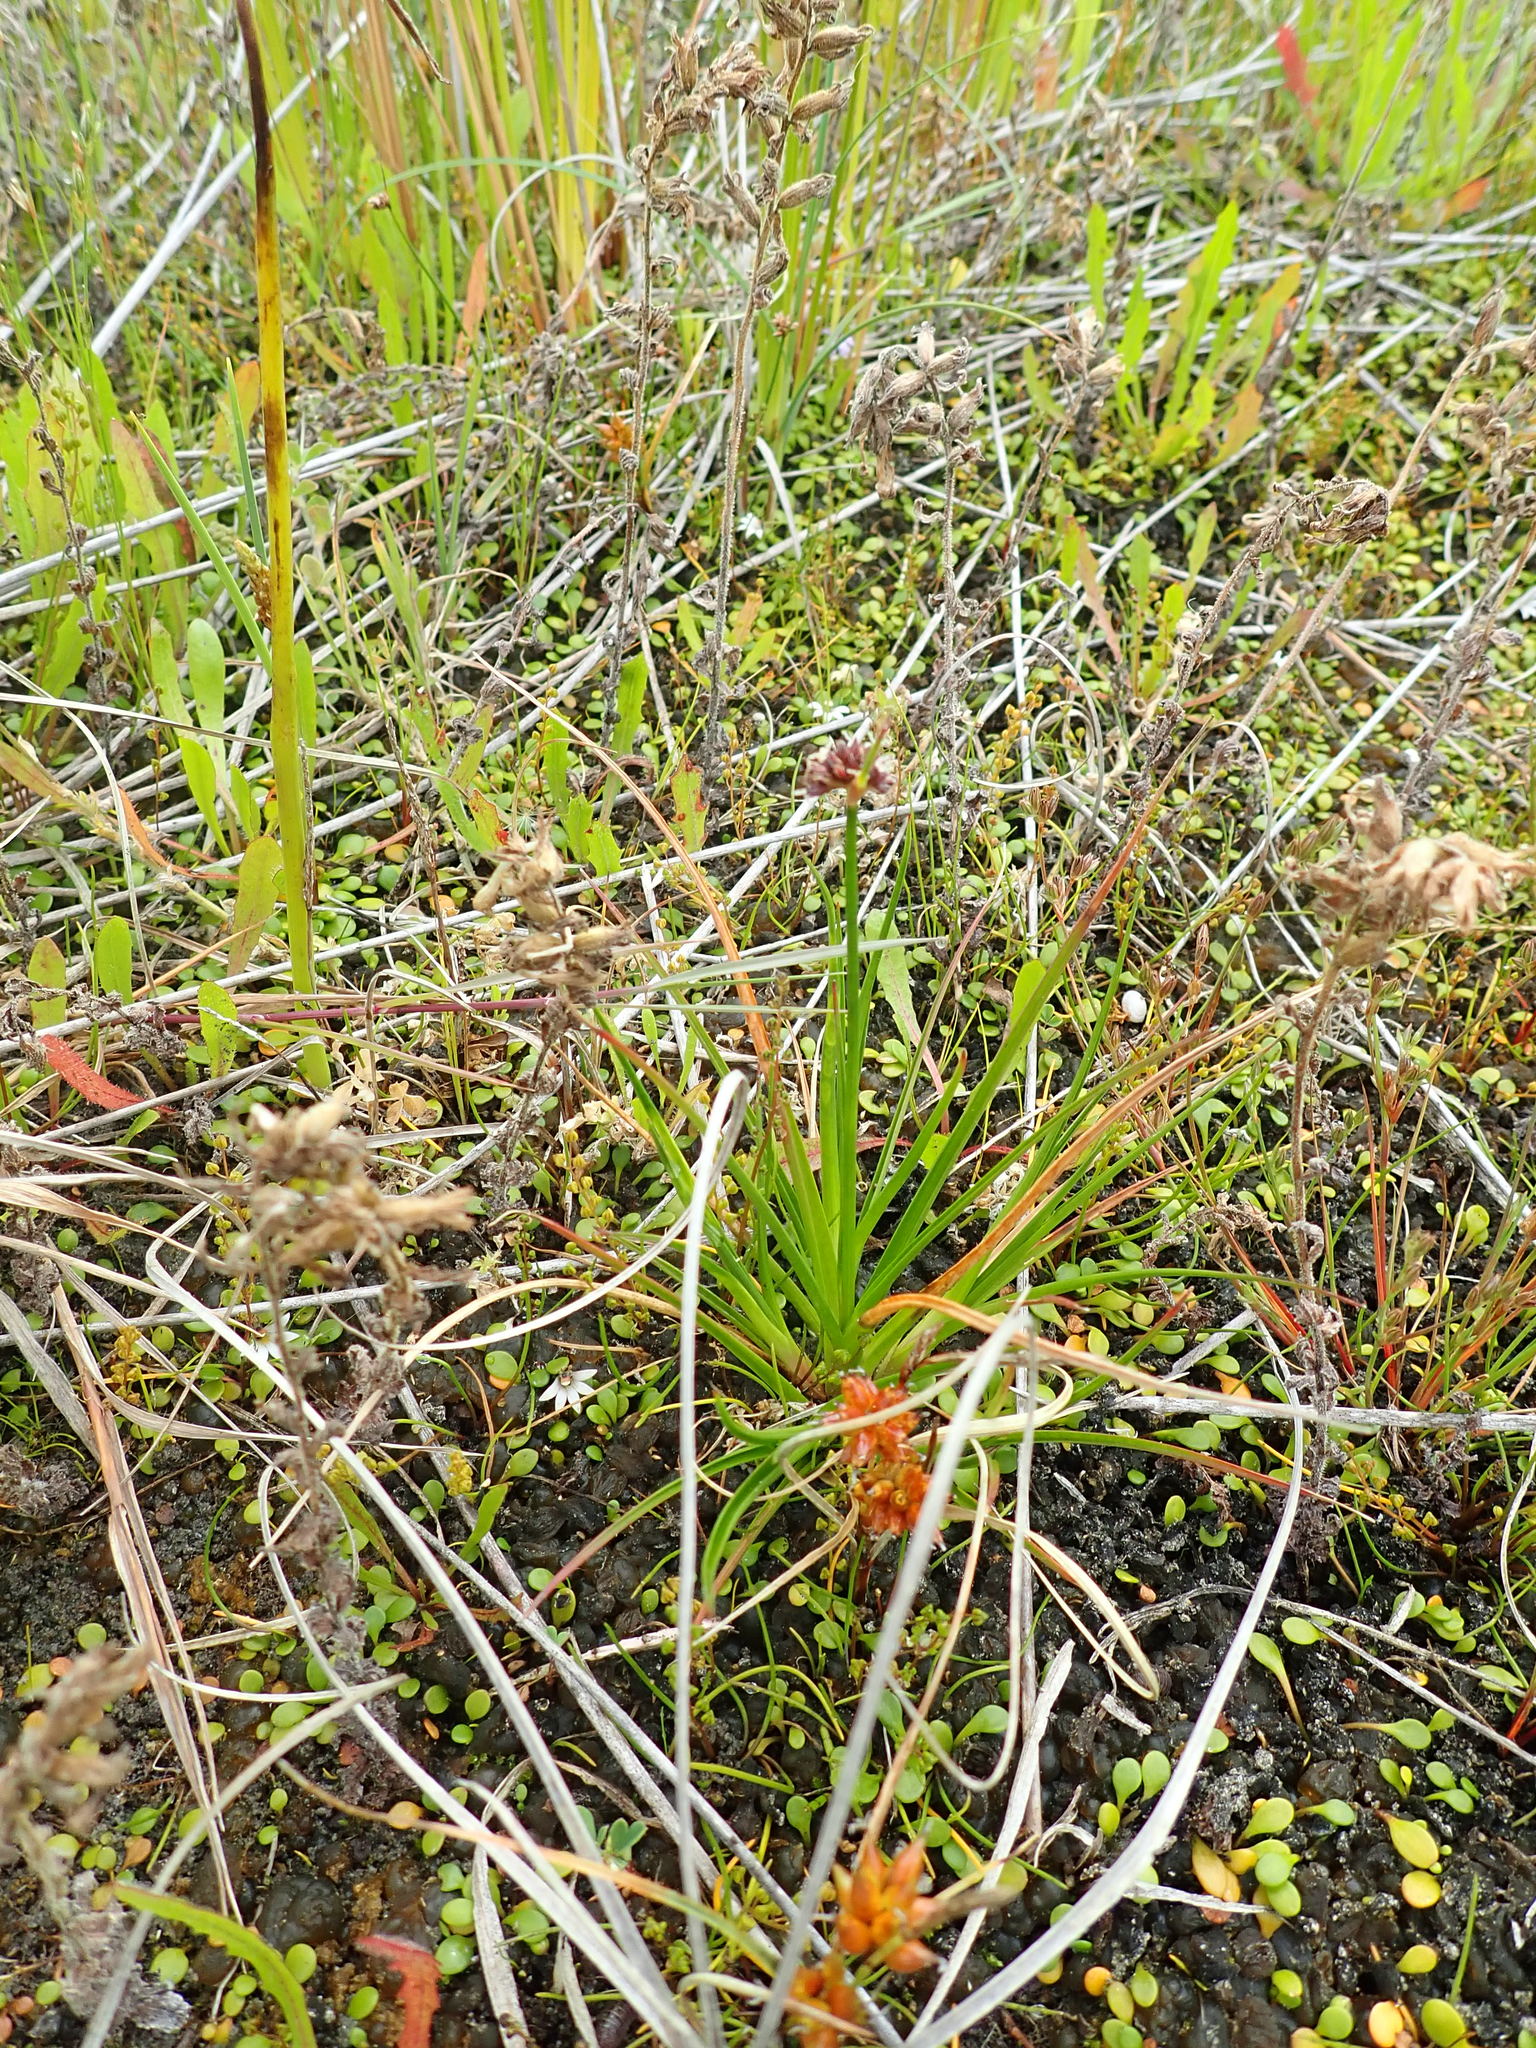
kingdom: Plantae
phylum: Tracheophyta
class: Liliopsida
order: Poales
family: Juncaceae
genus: Juncus
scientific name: Juncus caespiticius
